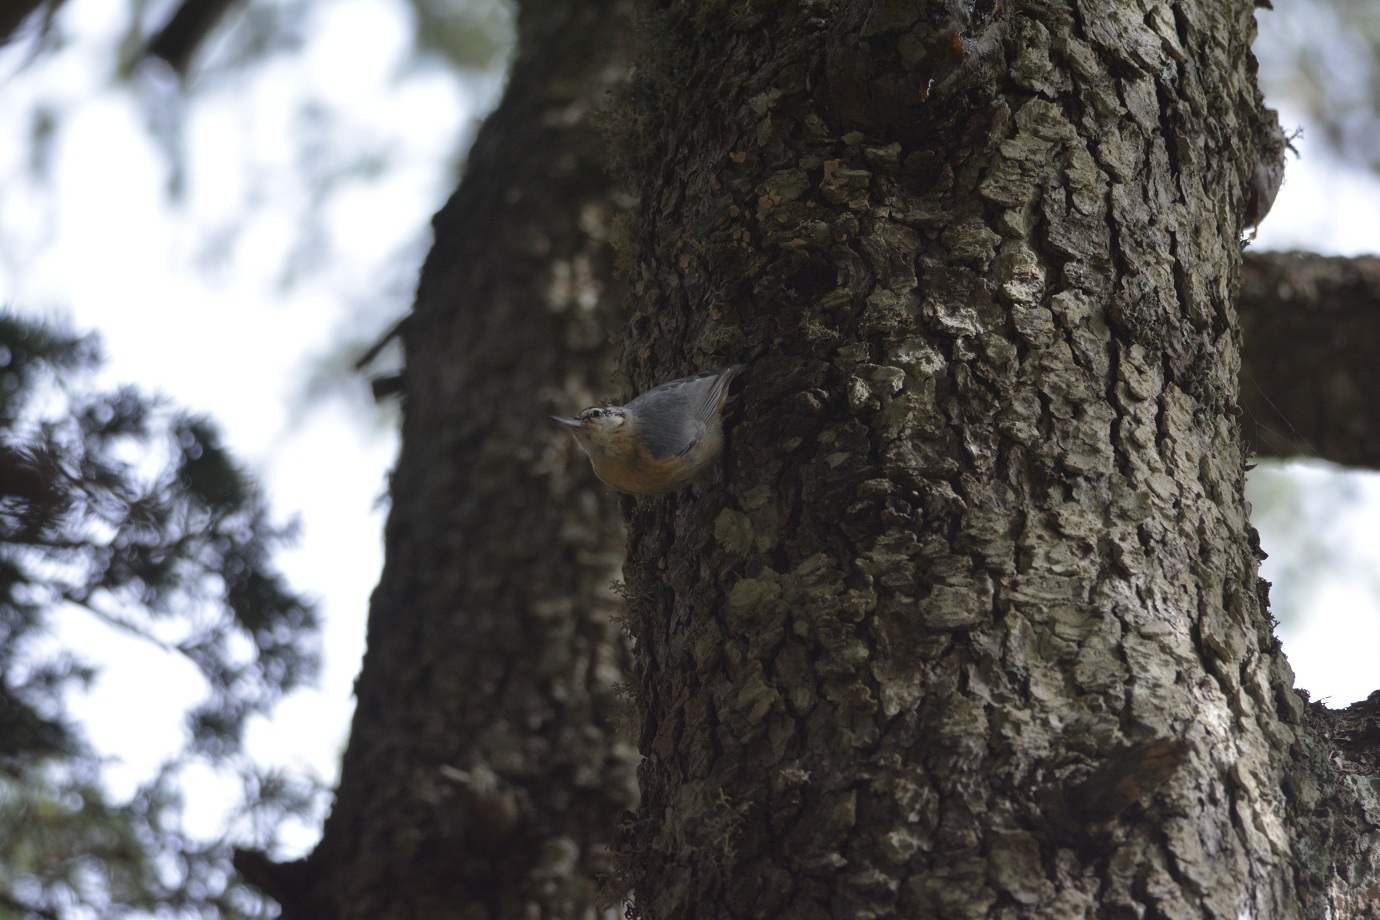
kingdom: Animalia
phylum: Chordata
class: Aves
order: Passeriformes
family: Sittidae
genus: Sitta
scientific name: Sitta ledanti
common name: Algerian nuthatch
